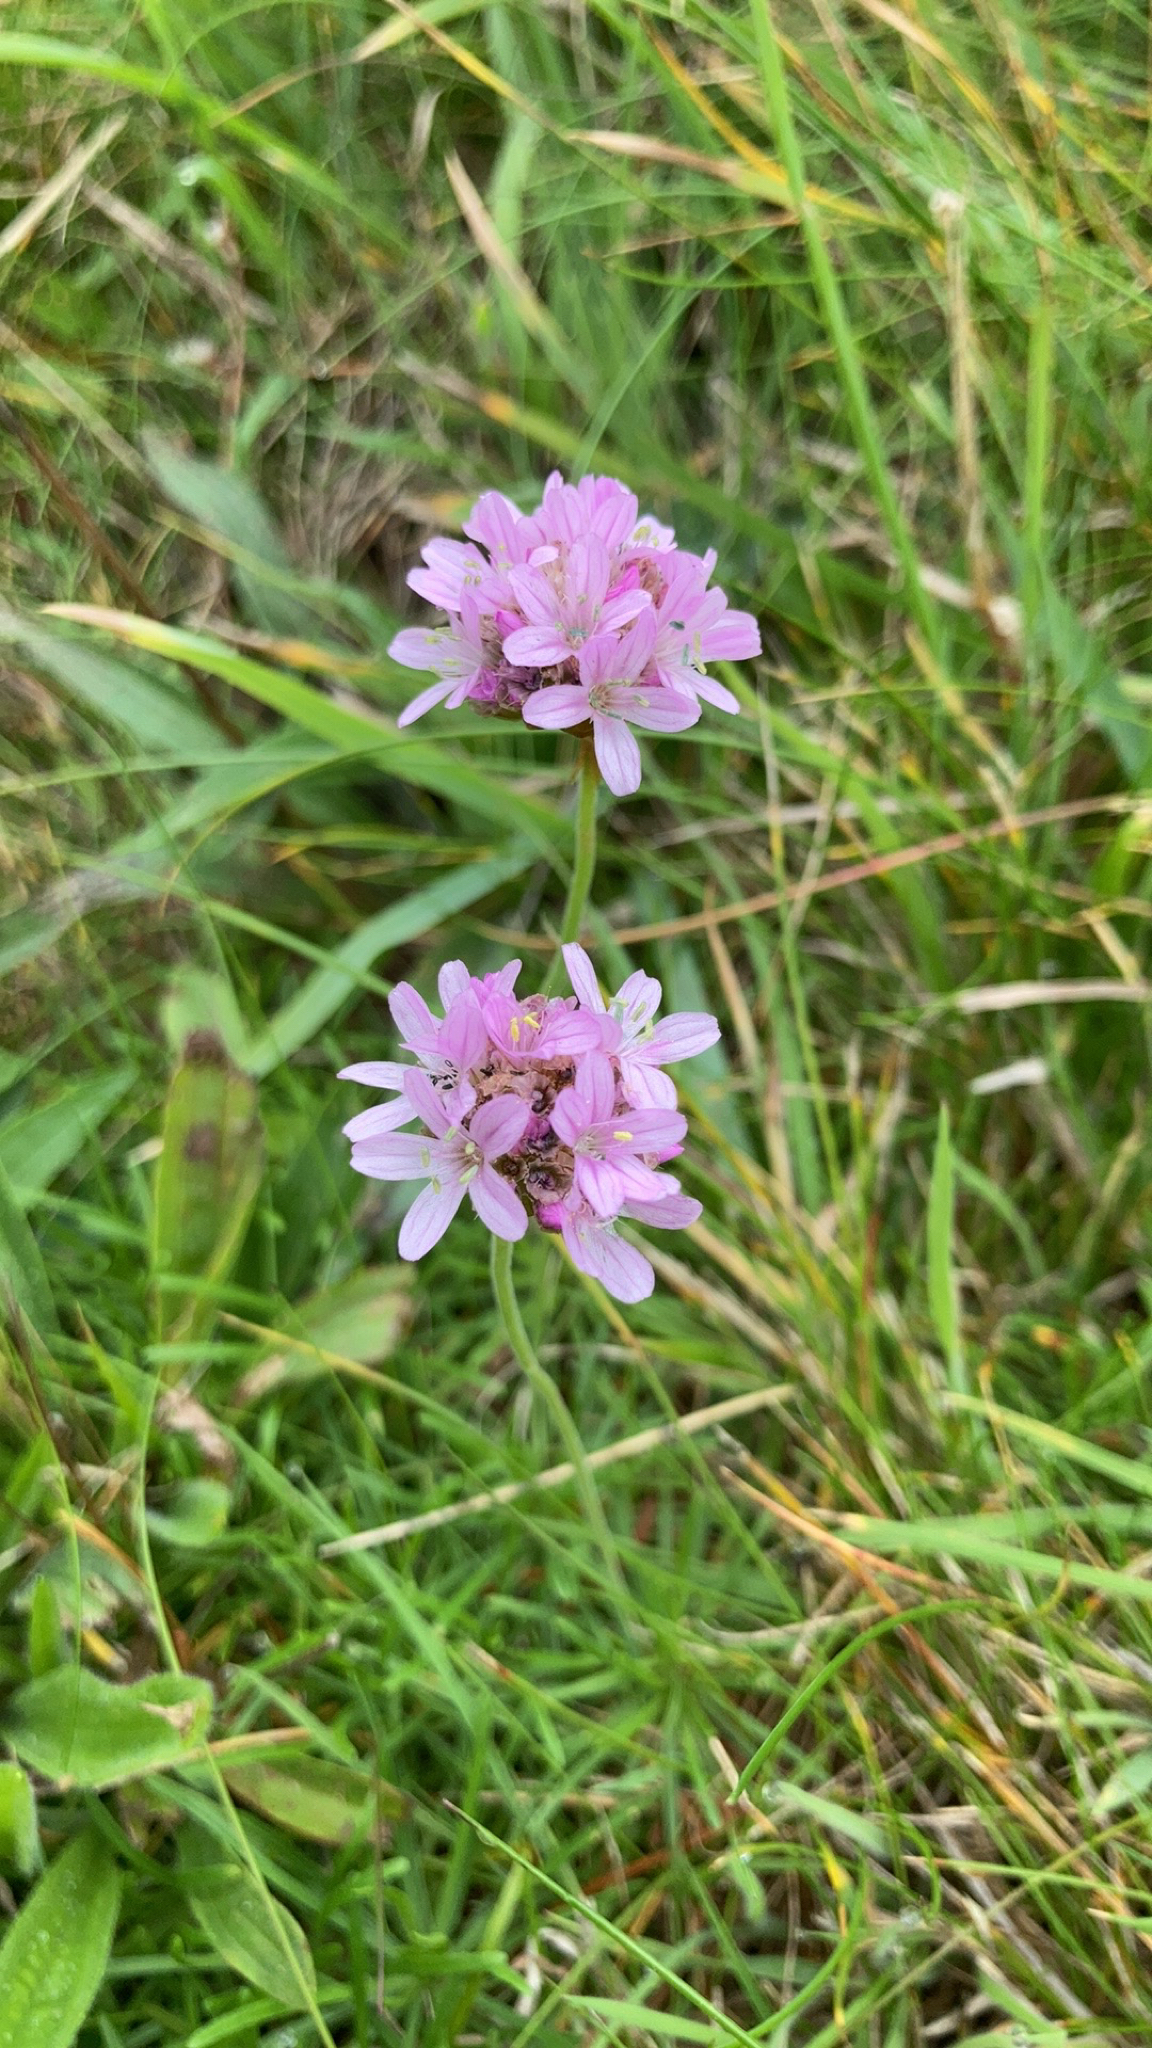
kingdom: Plantae
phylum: Tracheophyta
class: Magnoliopsida
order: Caryophyllales
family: Plumbaginaceae
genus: Armeria
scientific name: Armeria maritima
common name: Thrift
